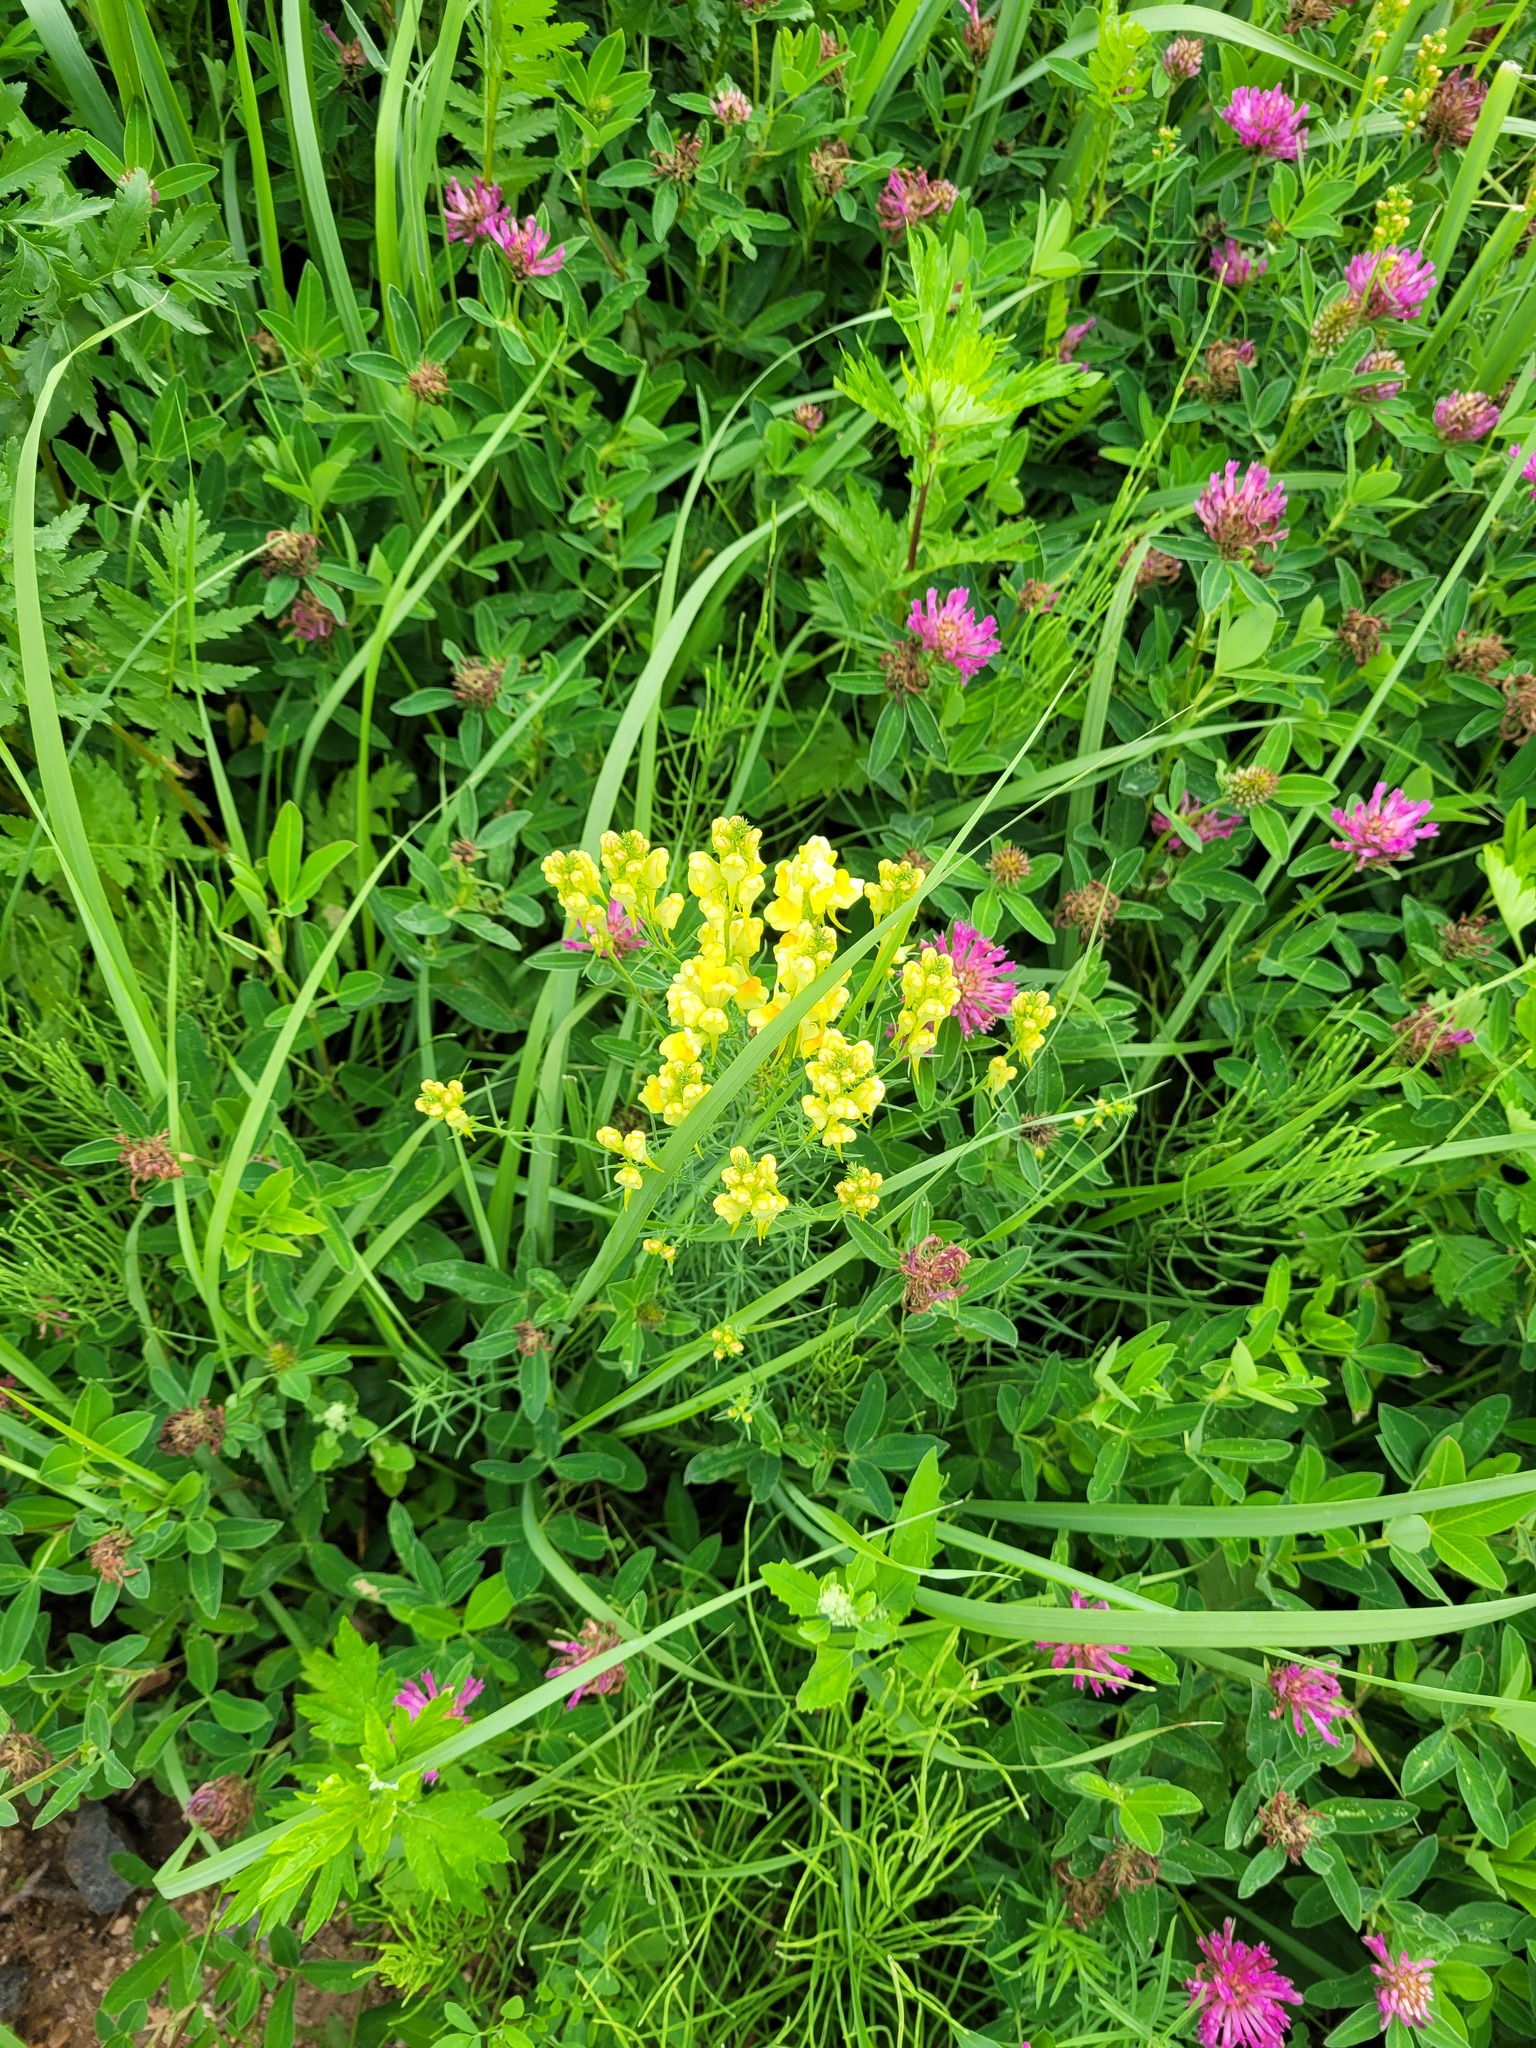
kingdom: Plantae
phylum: Tracheophyta
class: Magnoliopsida
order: Lamiales
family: Plantaginaceae
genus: Linaria
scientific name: Linaria vulgaris
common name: Butter and eggs
